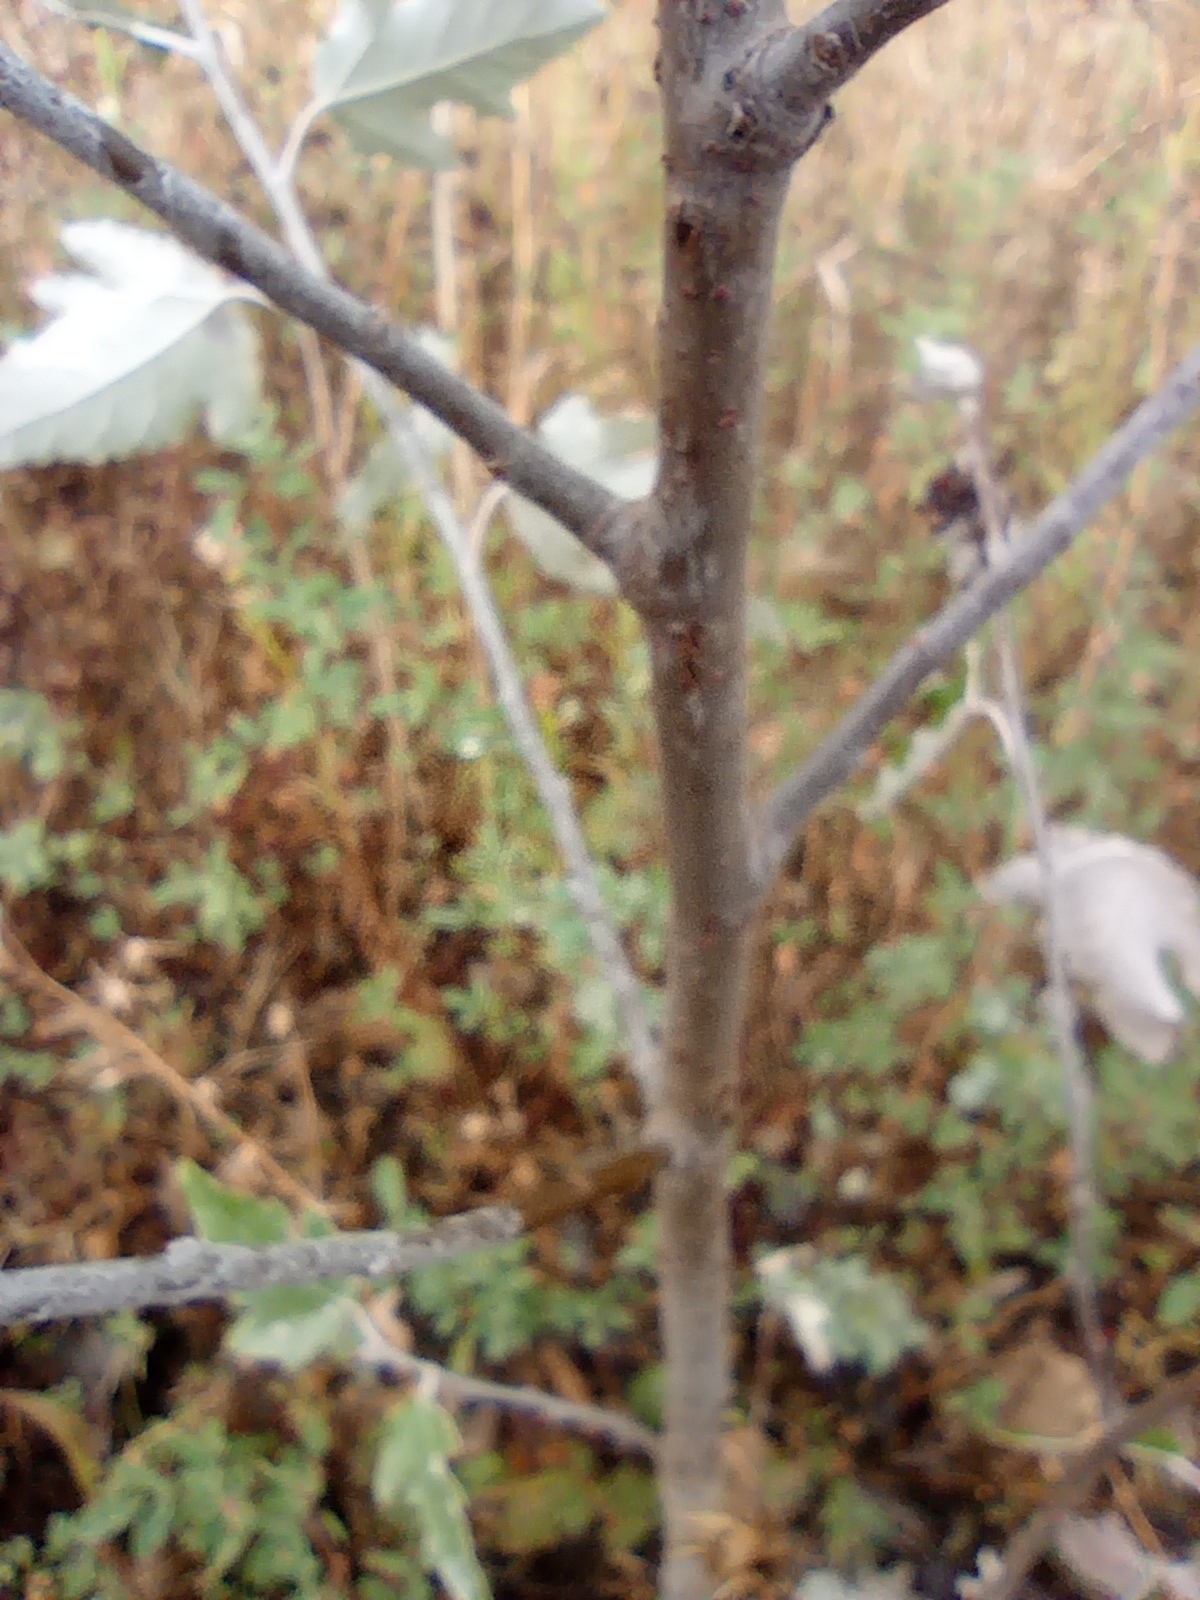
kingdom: Plantae
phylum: Tracheophyta
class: Magnoliopsida
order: Malpighiales
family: Salicaceae
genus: Populus
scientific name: Populus alba
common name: White poplar
